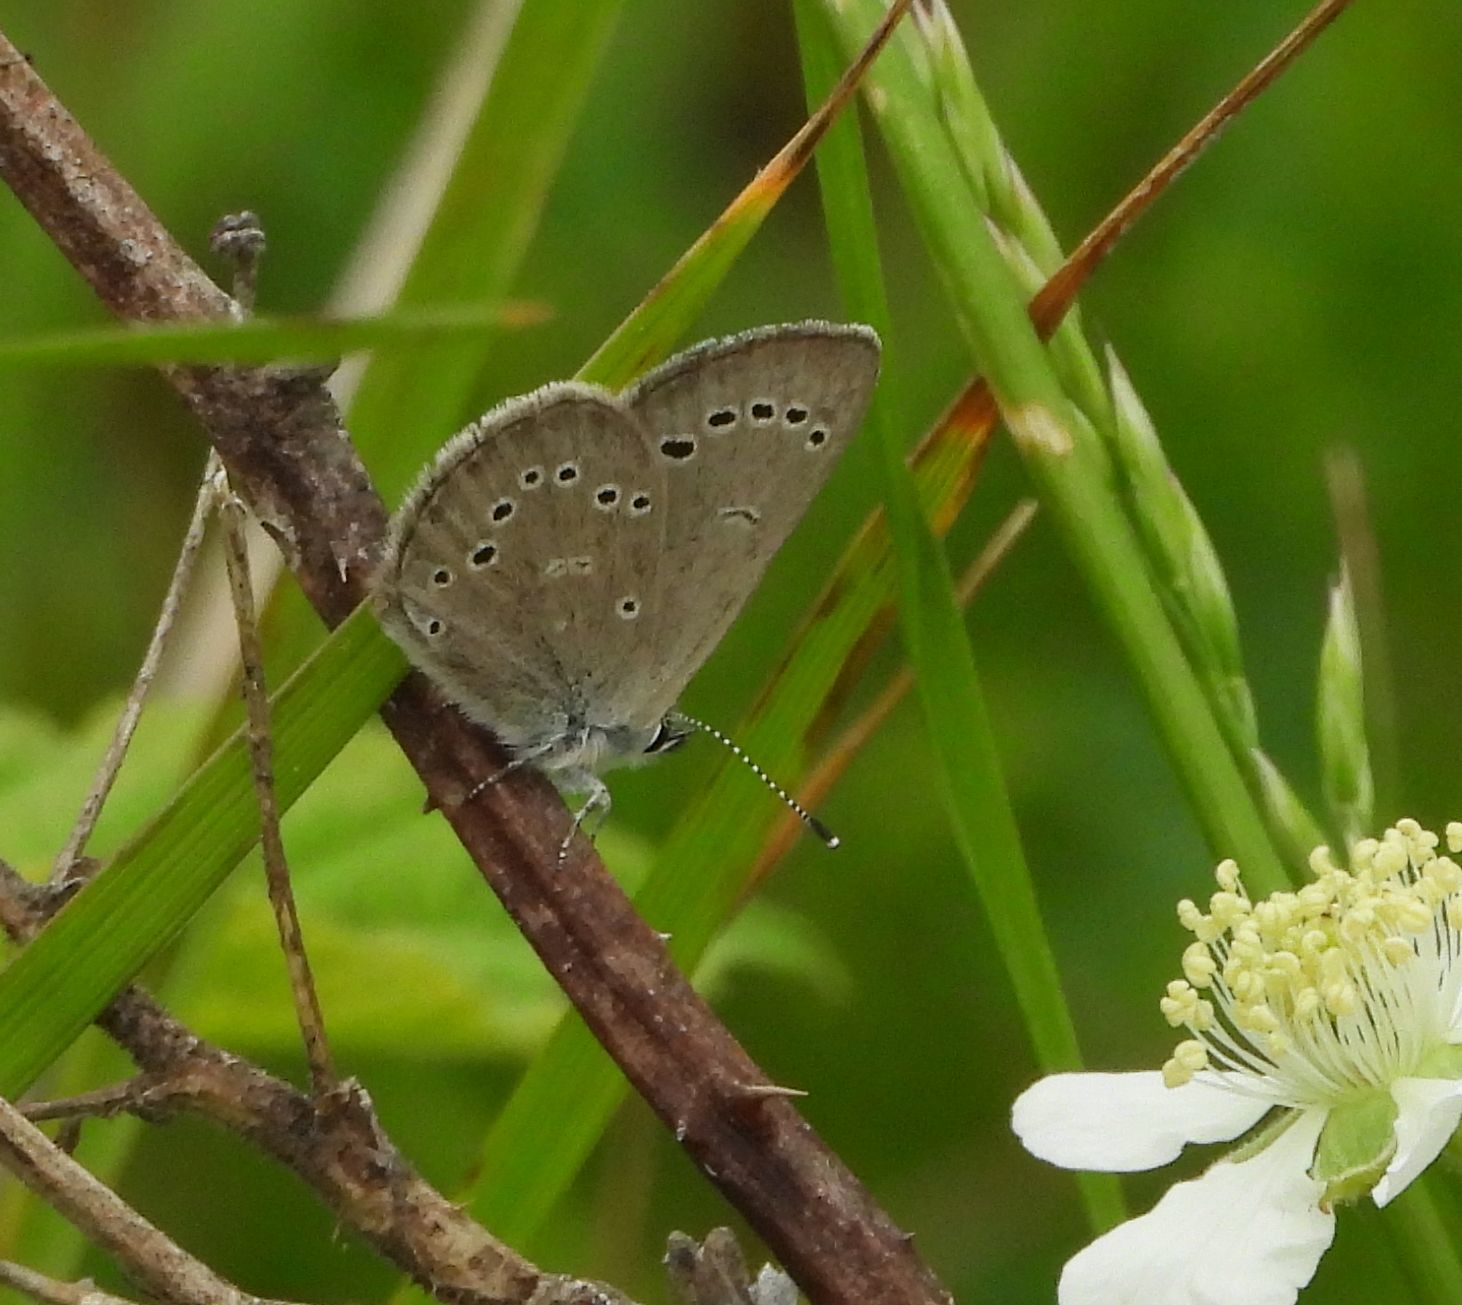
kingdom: Animalia
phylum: Arthropoda
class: Insecta
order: Lepidoptera
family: Lycaenidae
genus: Glaucopsyche
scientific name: Glaucopsyche lygdamus
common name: Silvery blue
